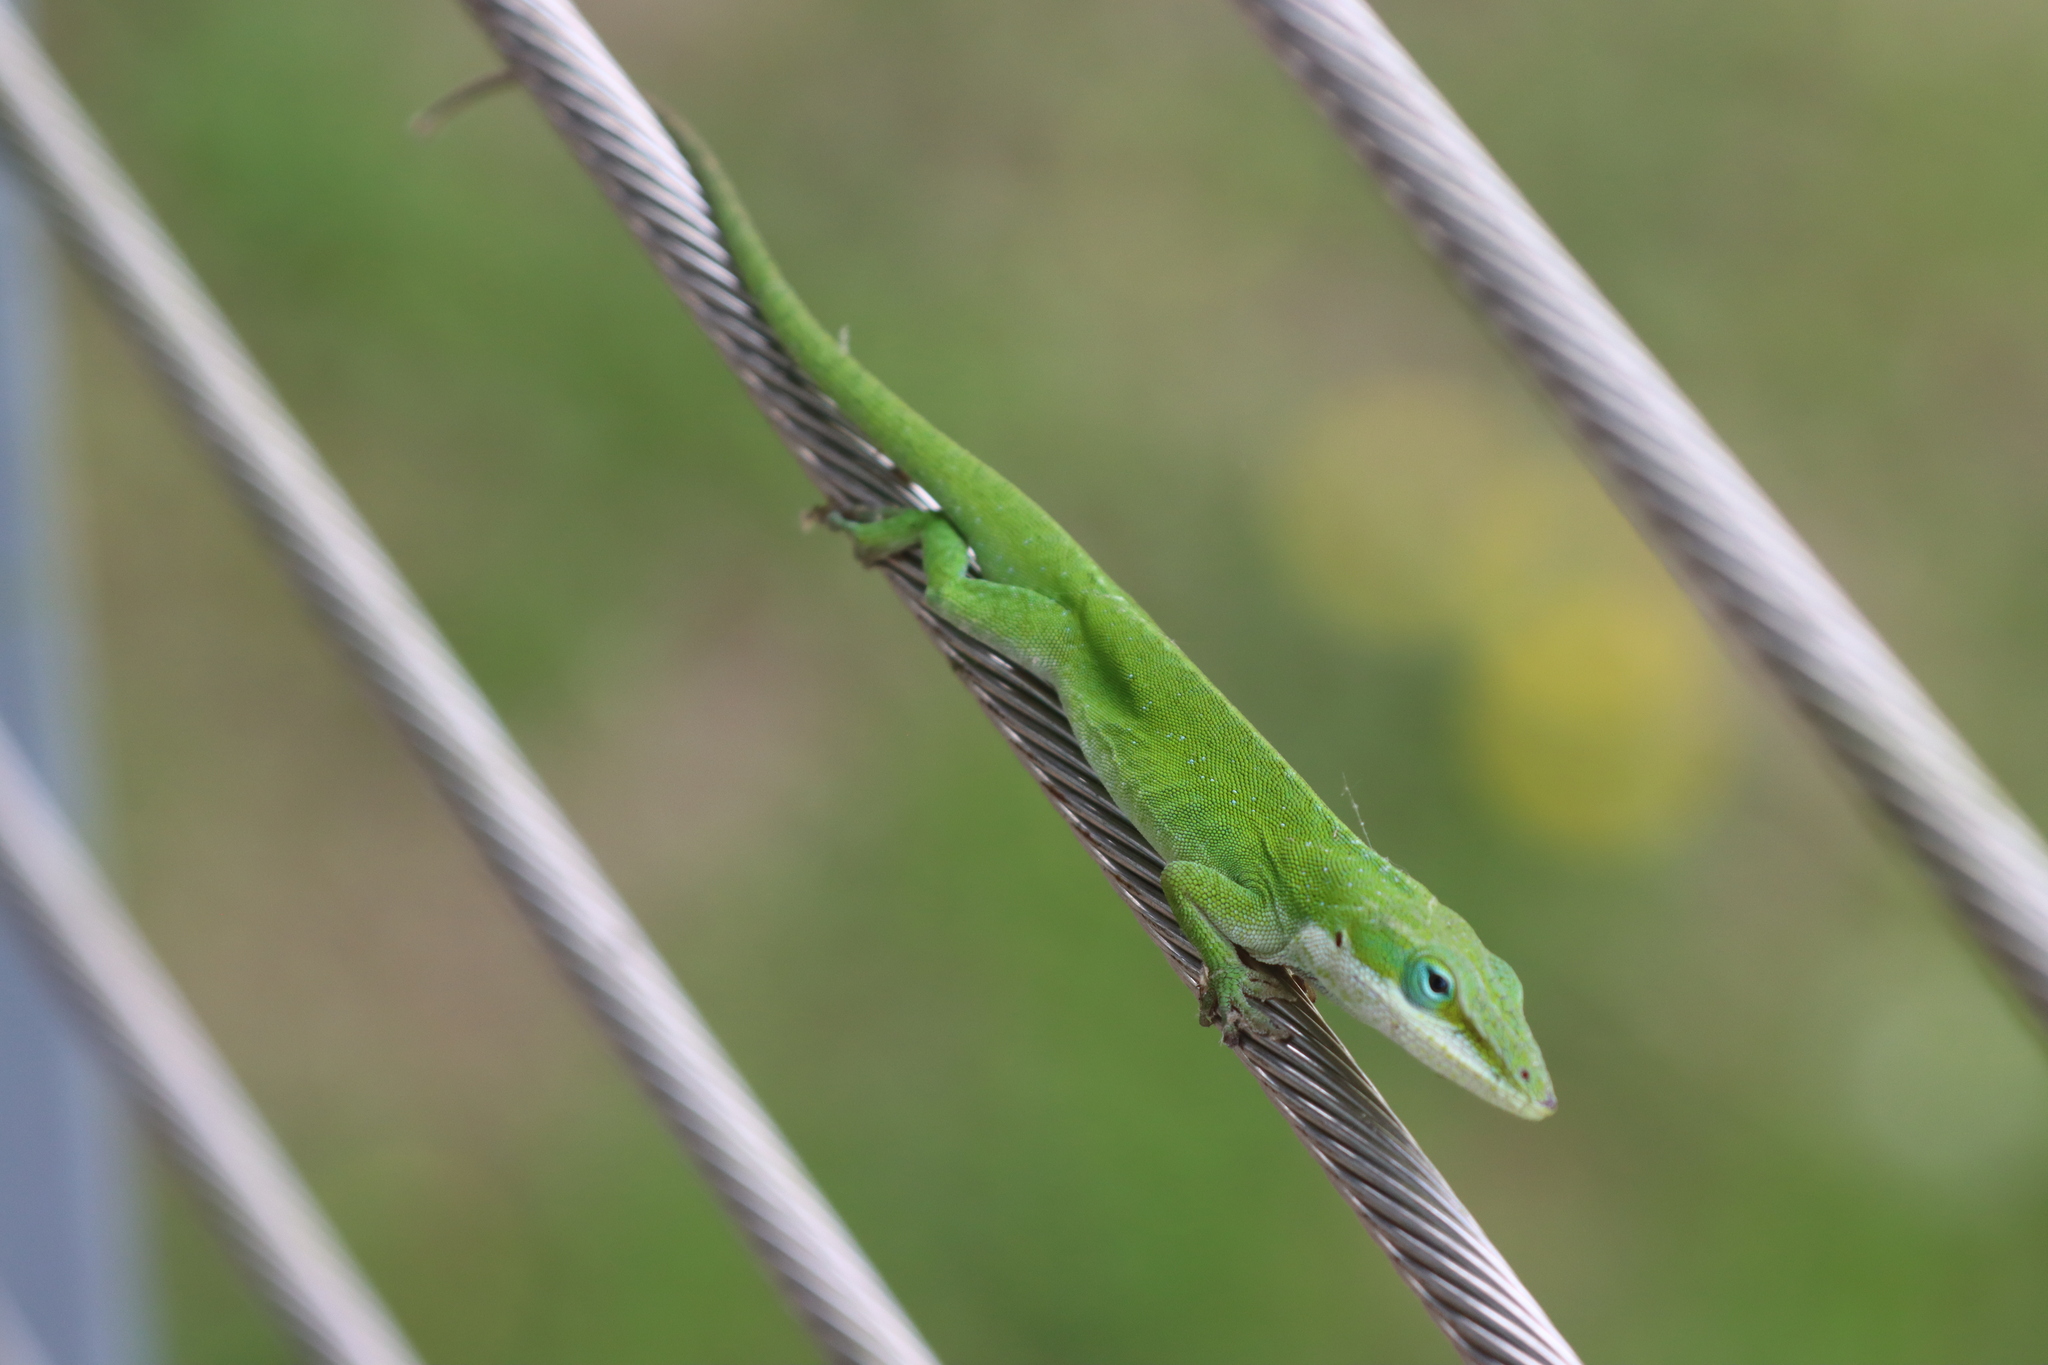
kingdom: Animalia
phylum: Chordata
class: Squamata
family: Dactyloidae
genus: Anolis
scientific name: Anolis carolinensis
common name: Green anole
